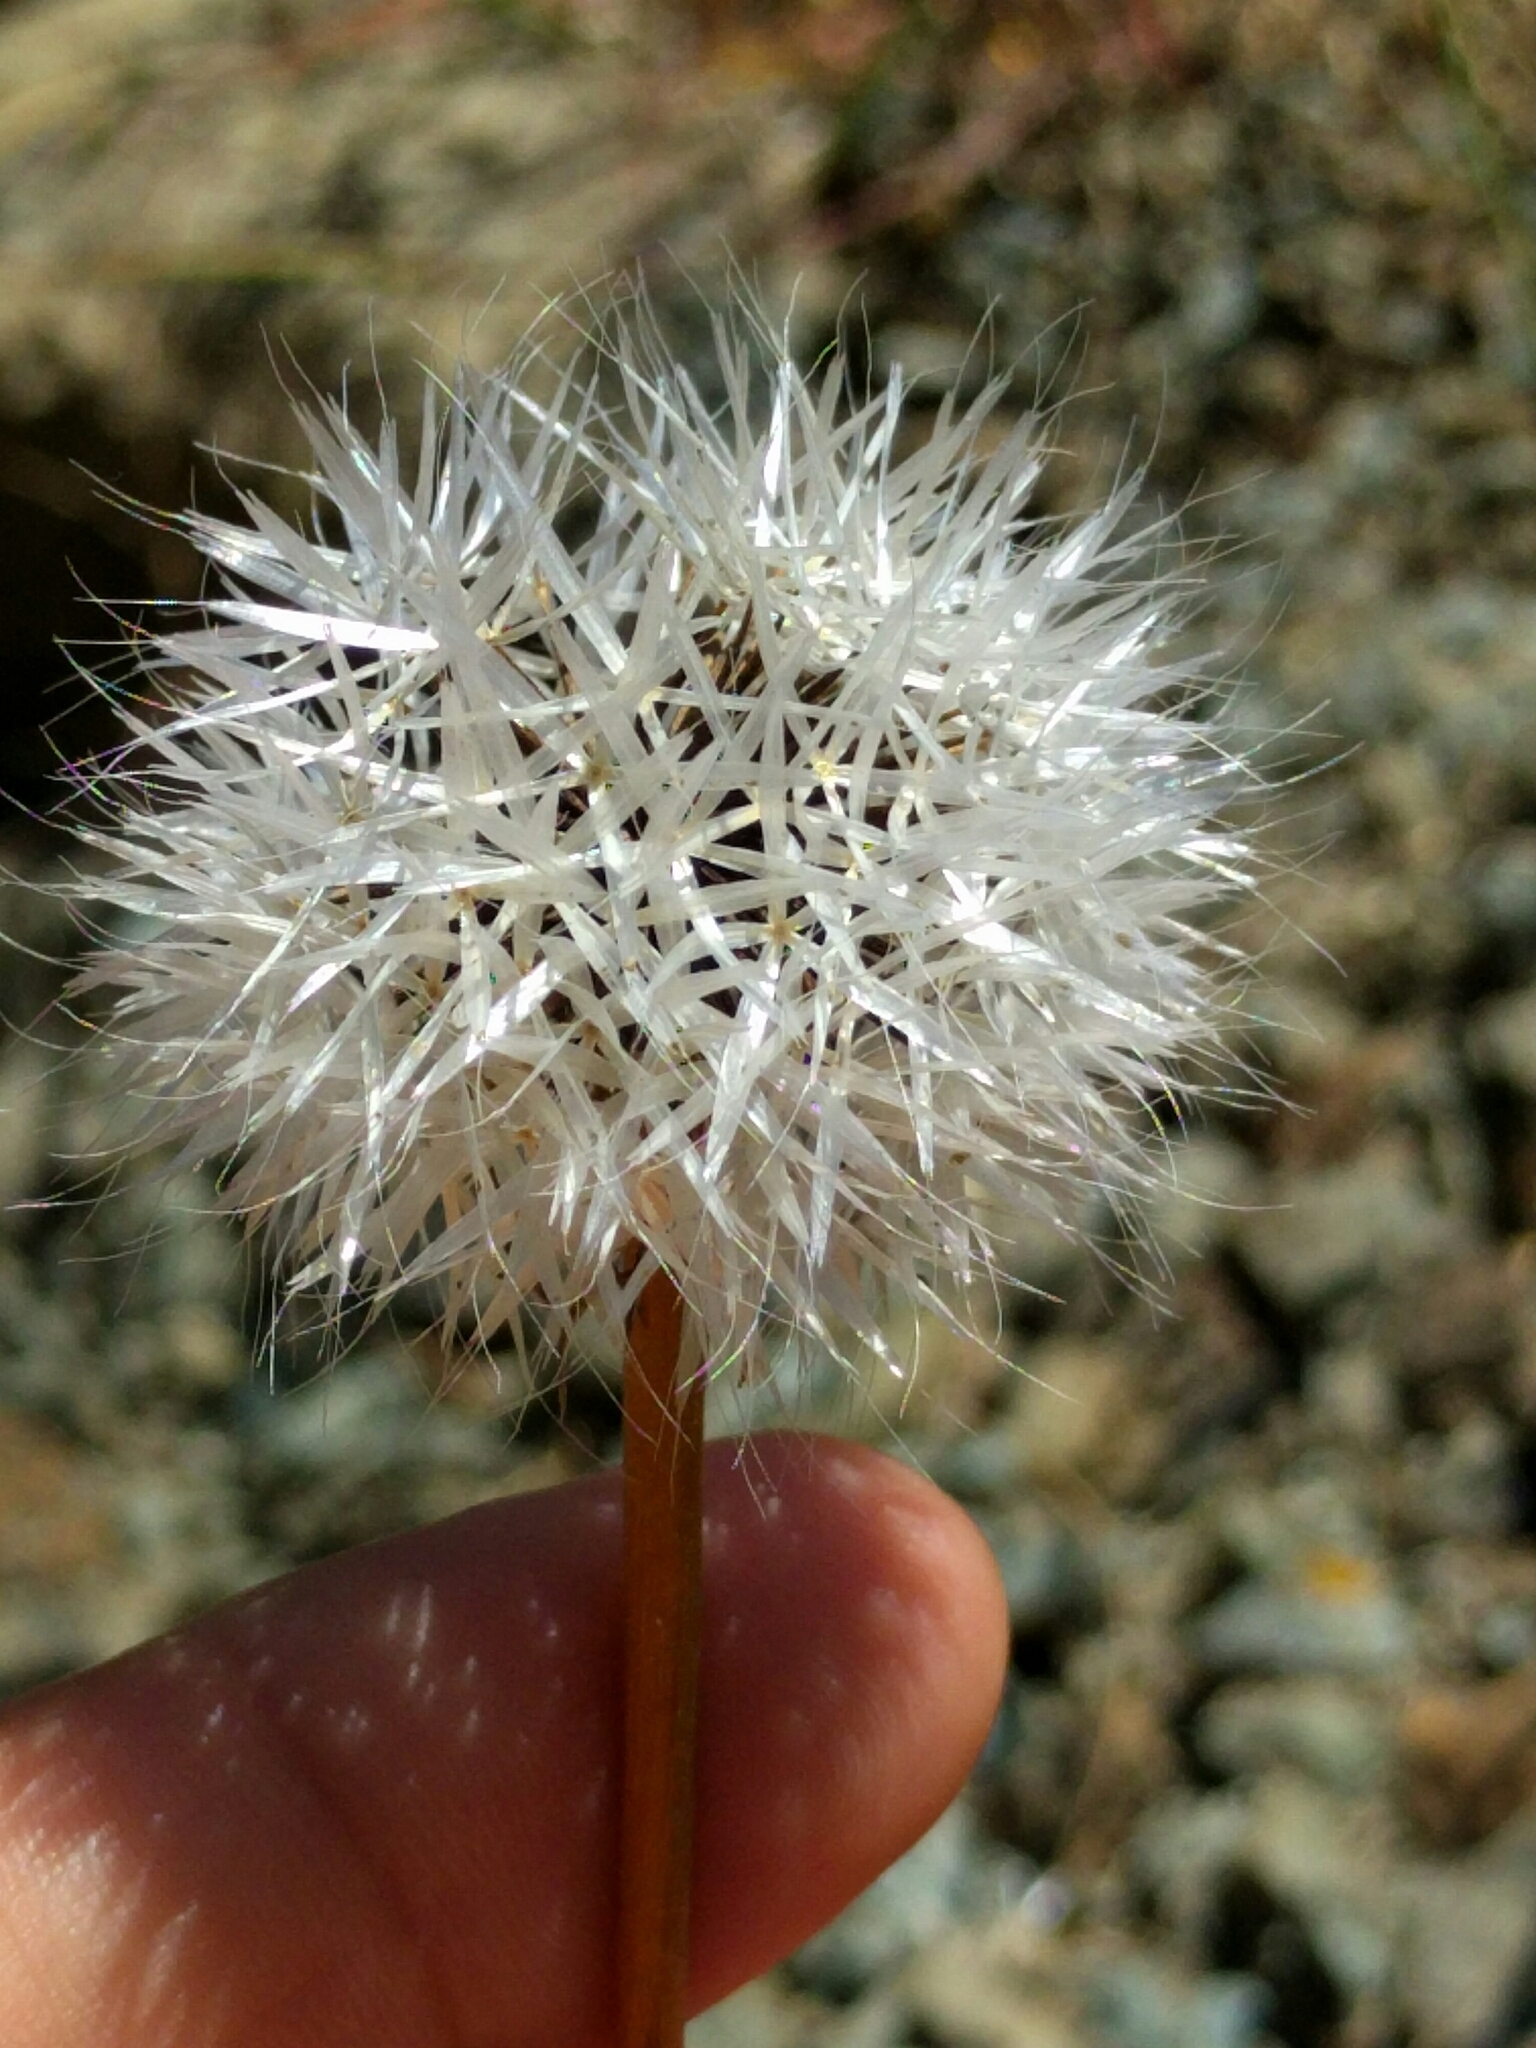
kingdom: Plantae
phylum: Tracheophyta
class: Magnoliopsida
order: Asterales
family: Asteraceae
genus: Microseris
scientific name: Microseris lindleyi
